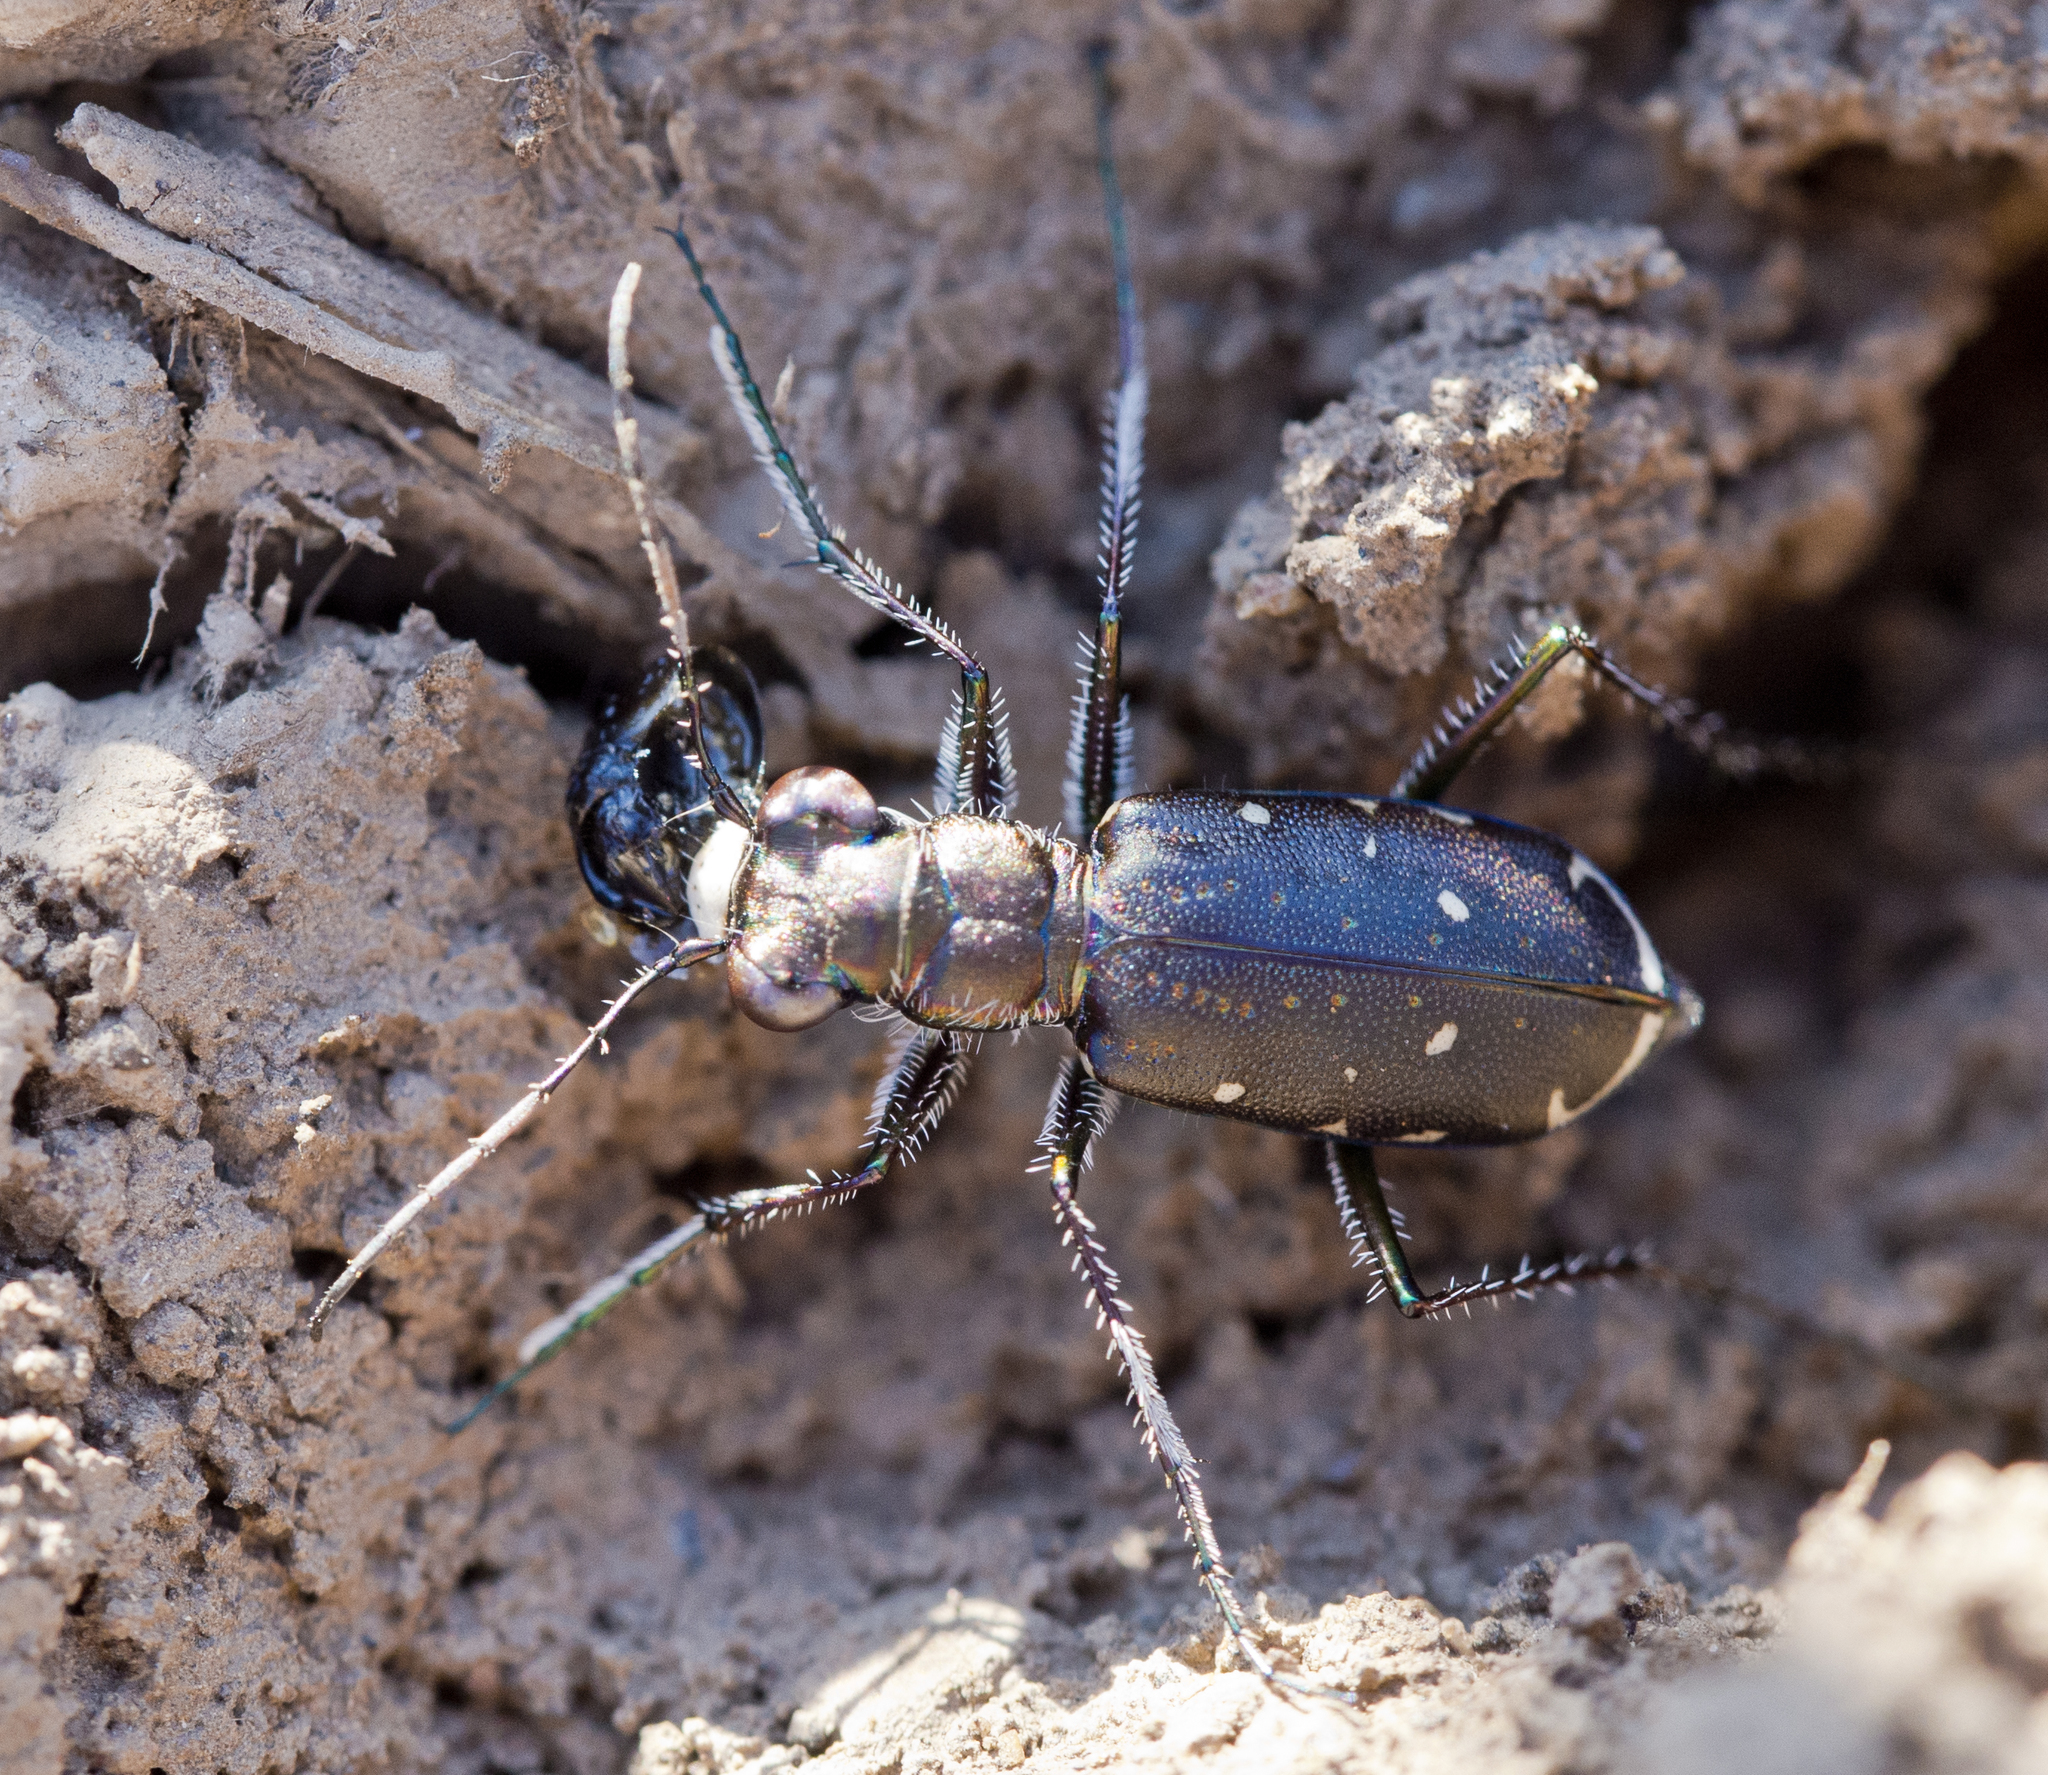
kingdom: Animalia
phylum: Arthropoda
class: Insecta
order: Coleoptera
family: Carabidae
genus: Cicindela
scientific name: Cicindela punctulata
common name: Punctured tiger beetle
